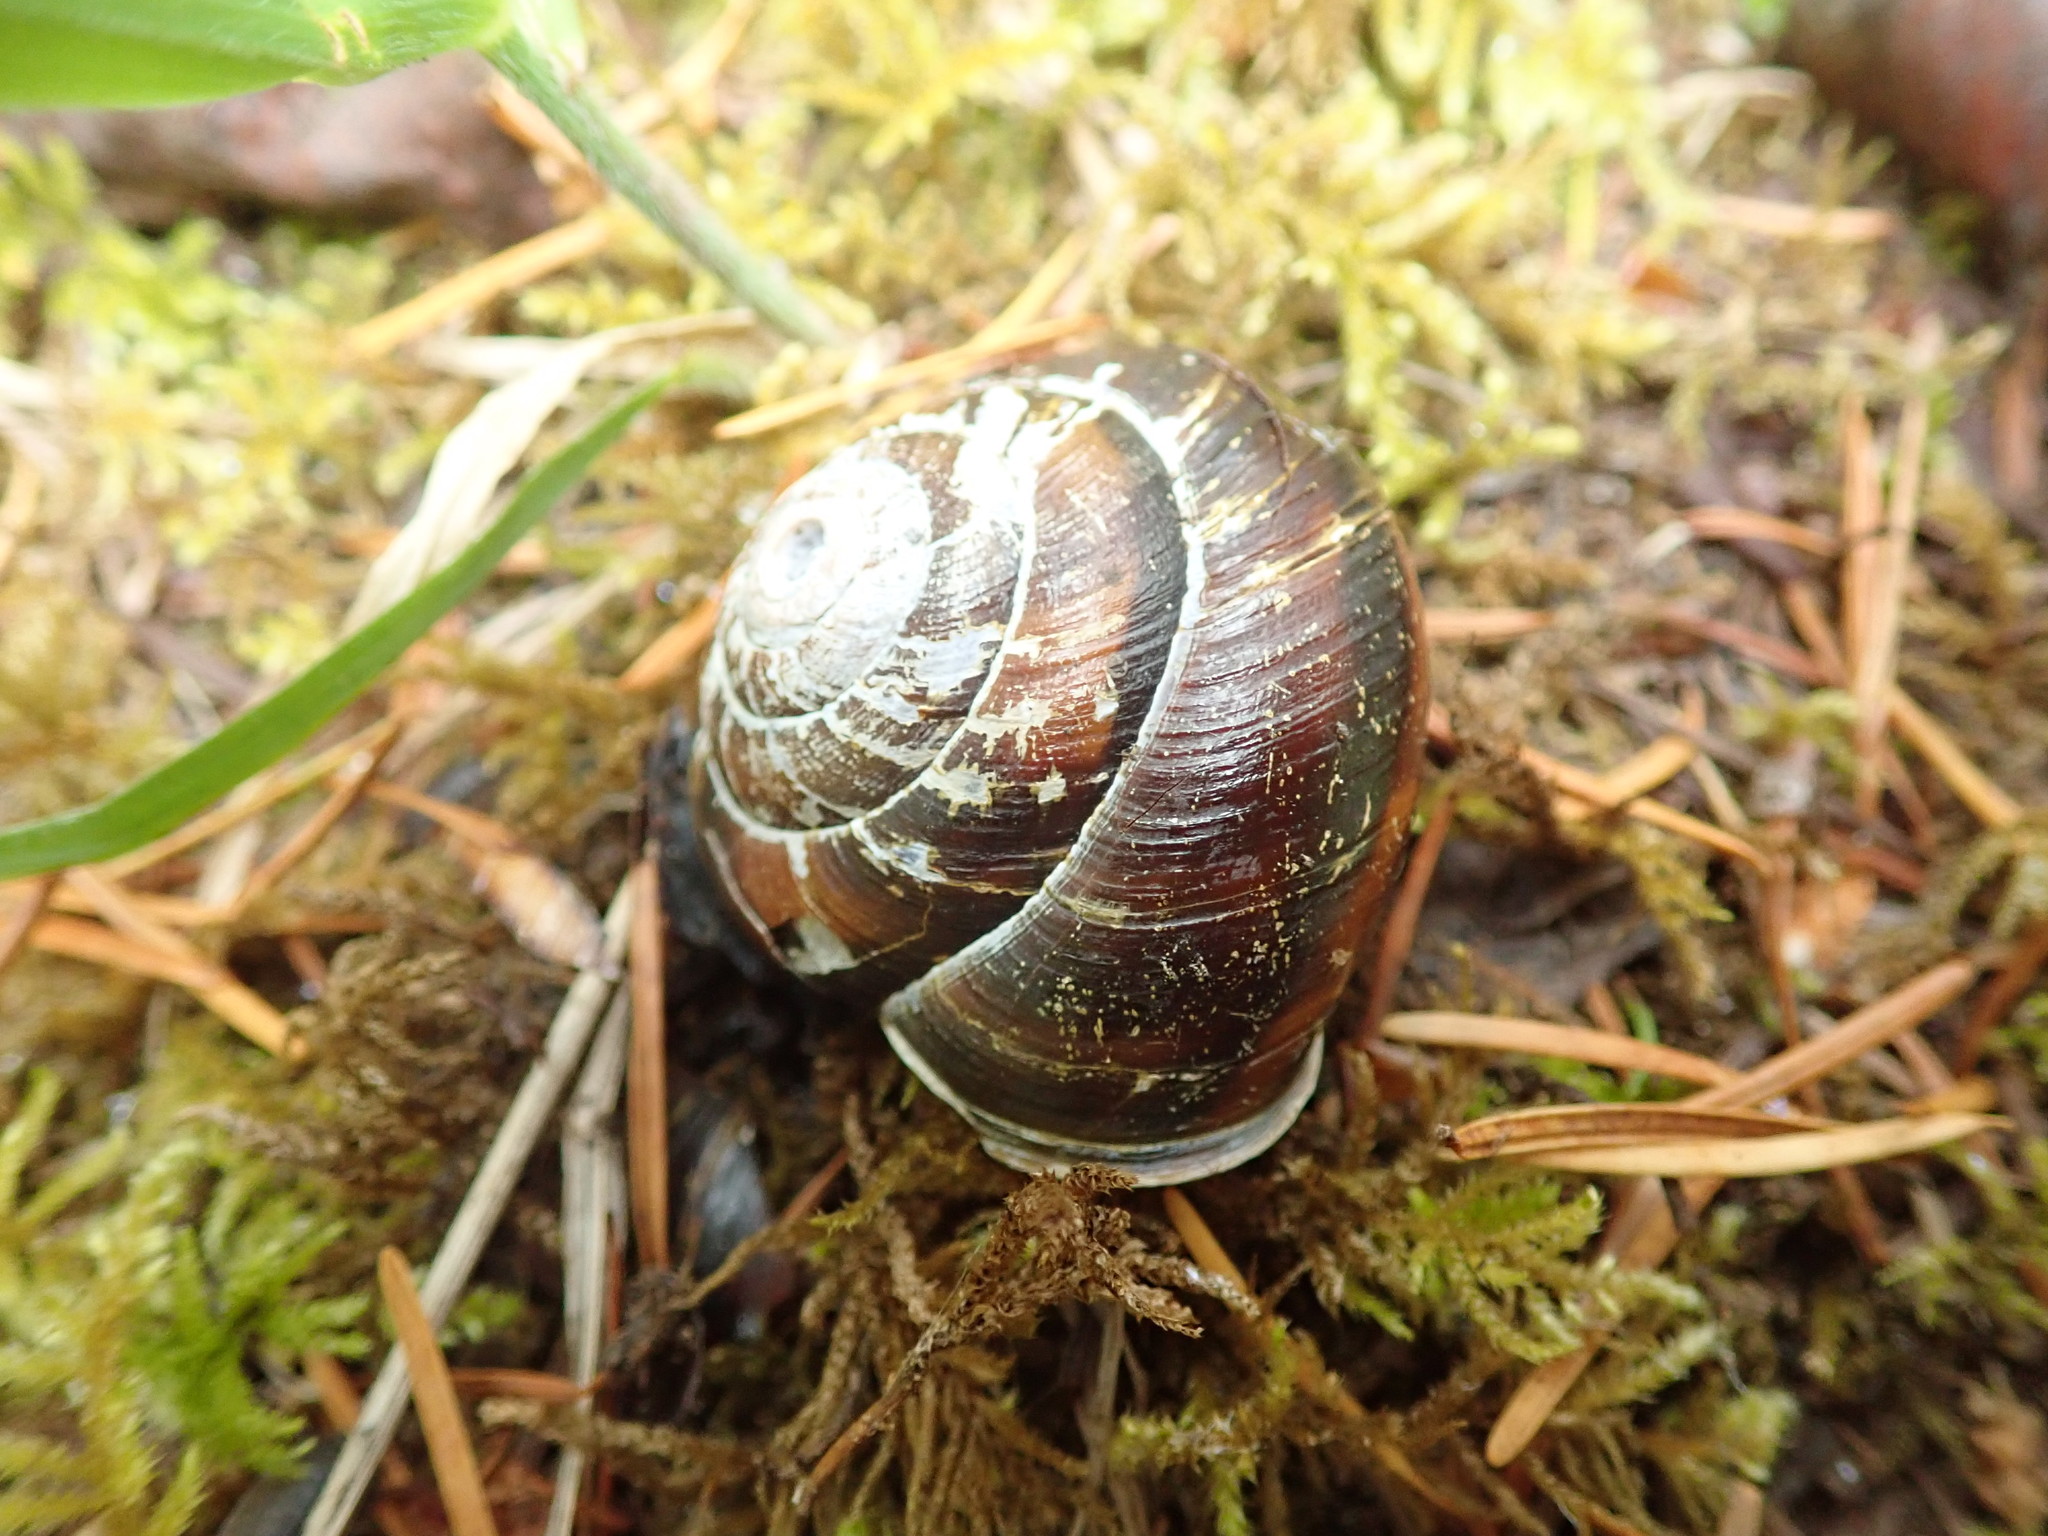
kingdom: Animalia
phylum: Mollusca
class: Gastropoda
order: Stylommatophora
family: Xanthonychidae
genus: Monadenia
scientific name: Monadenia fidelis
